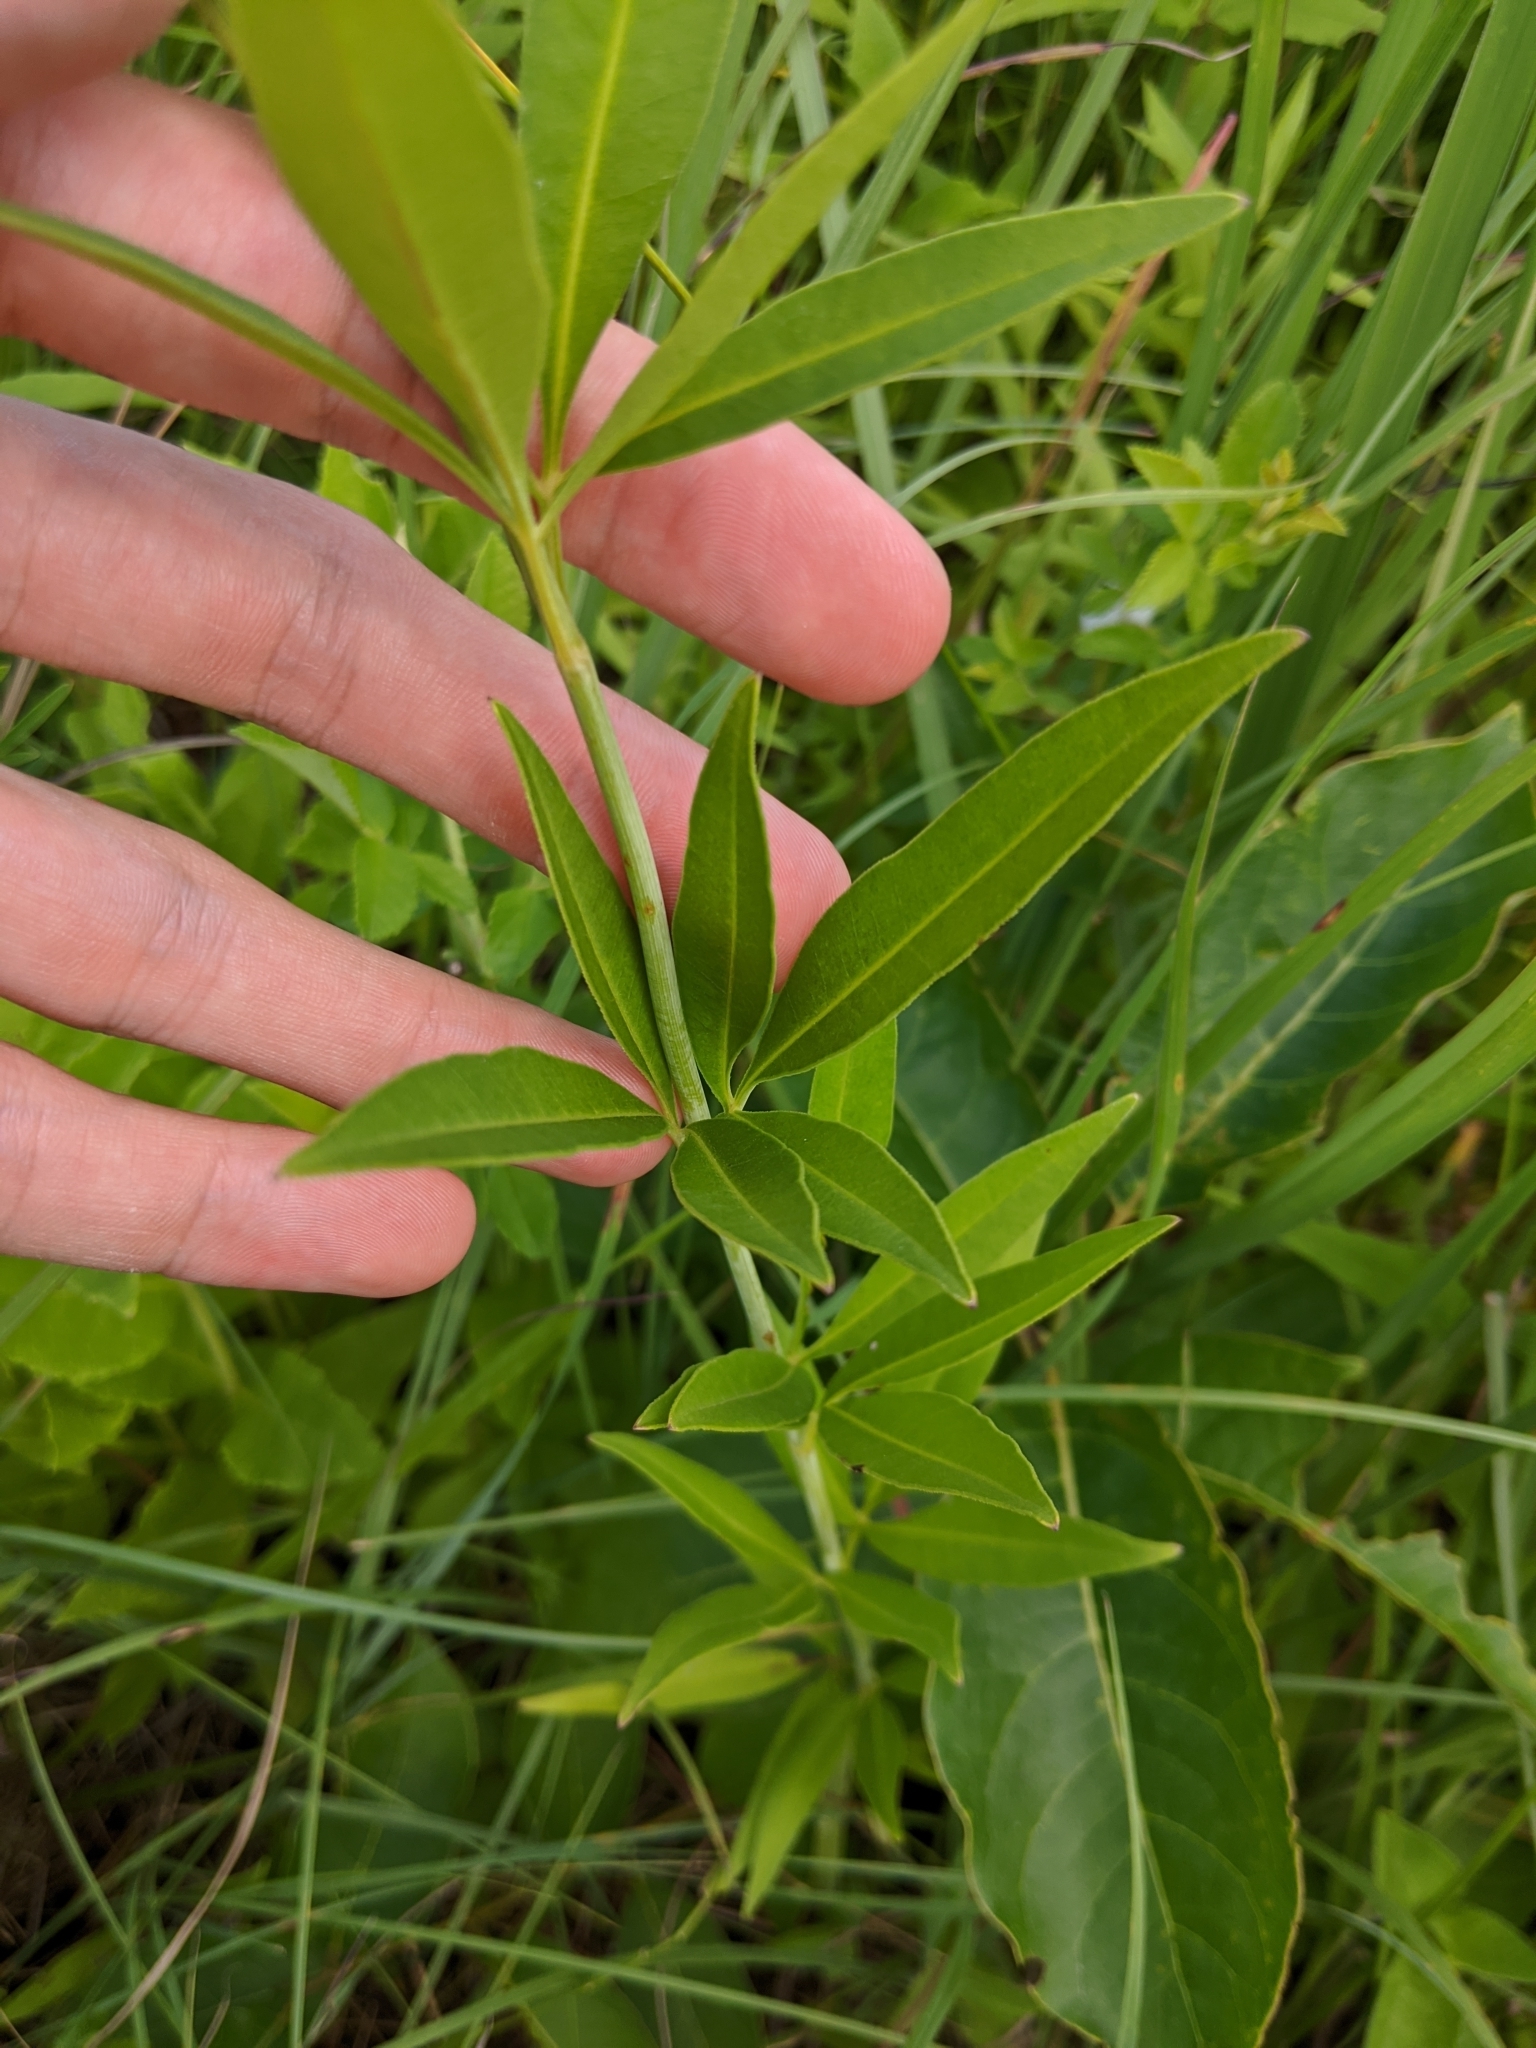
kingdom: Plantae
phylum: Tracheophyta
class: Magnoliopsida
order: Asterales
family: Asteraceae
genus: Coreopsis
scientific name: Coreopsis tripteris
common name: Tall coreopsis
